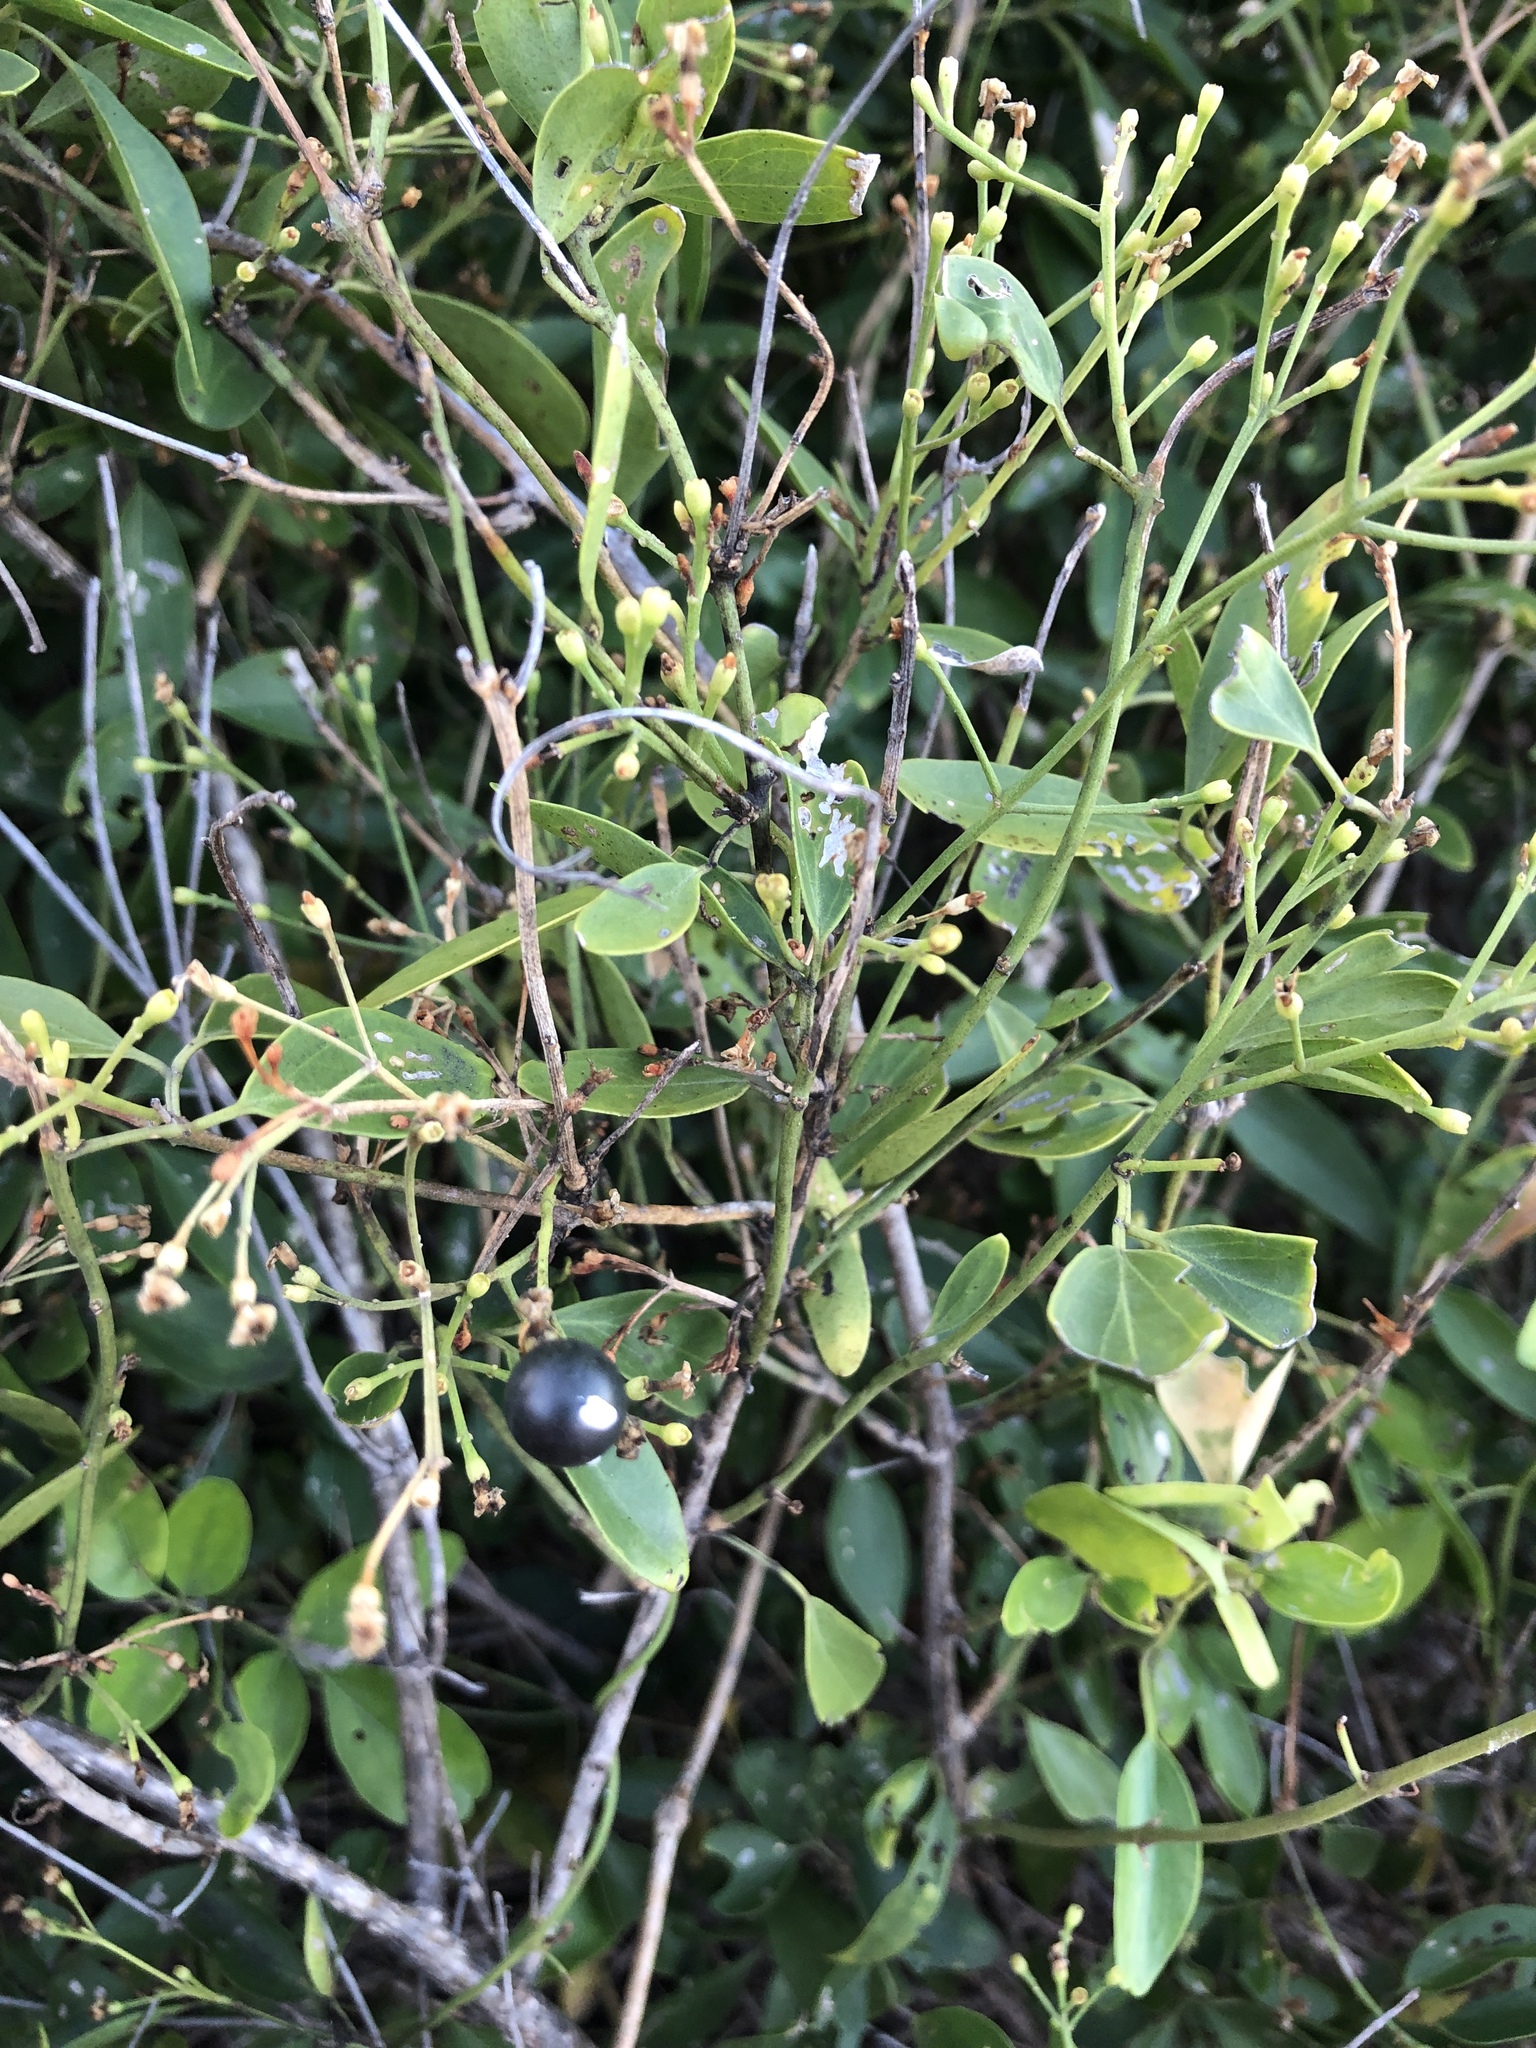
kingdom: Plantae
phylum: Tracheophyta
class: Magnoliopsida
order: Lamiales
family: Oleaceae
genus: Jasminum
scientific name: Jasminum simplicifolium
